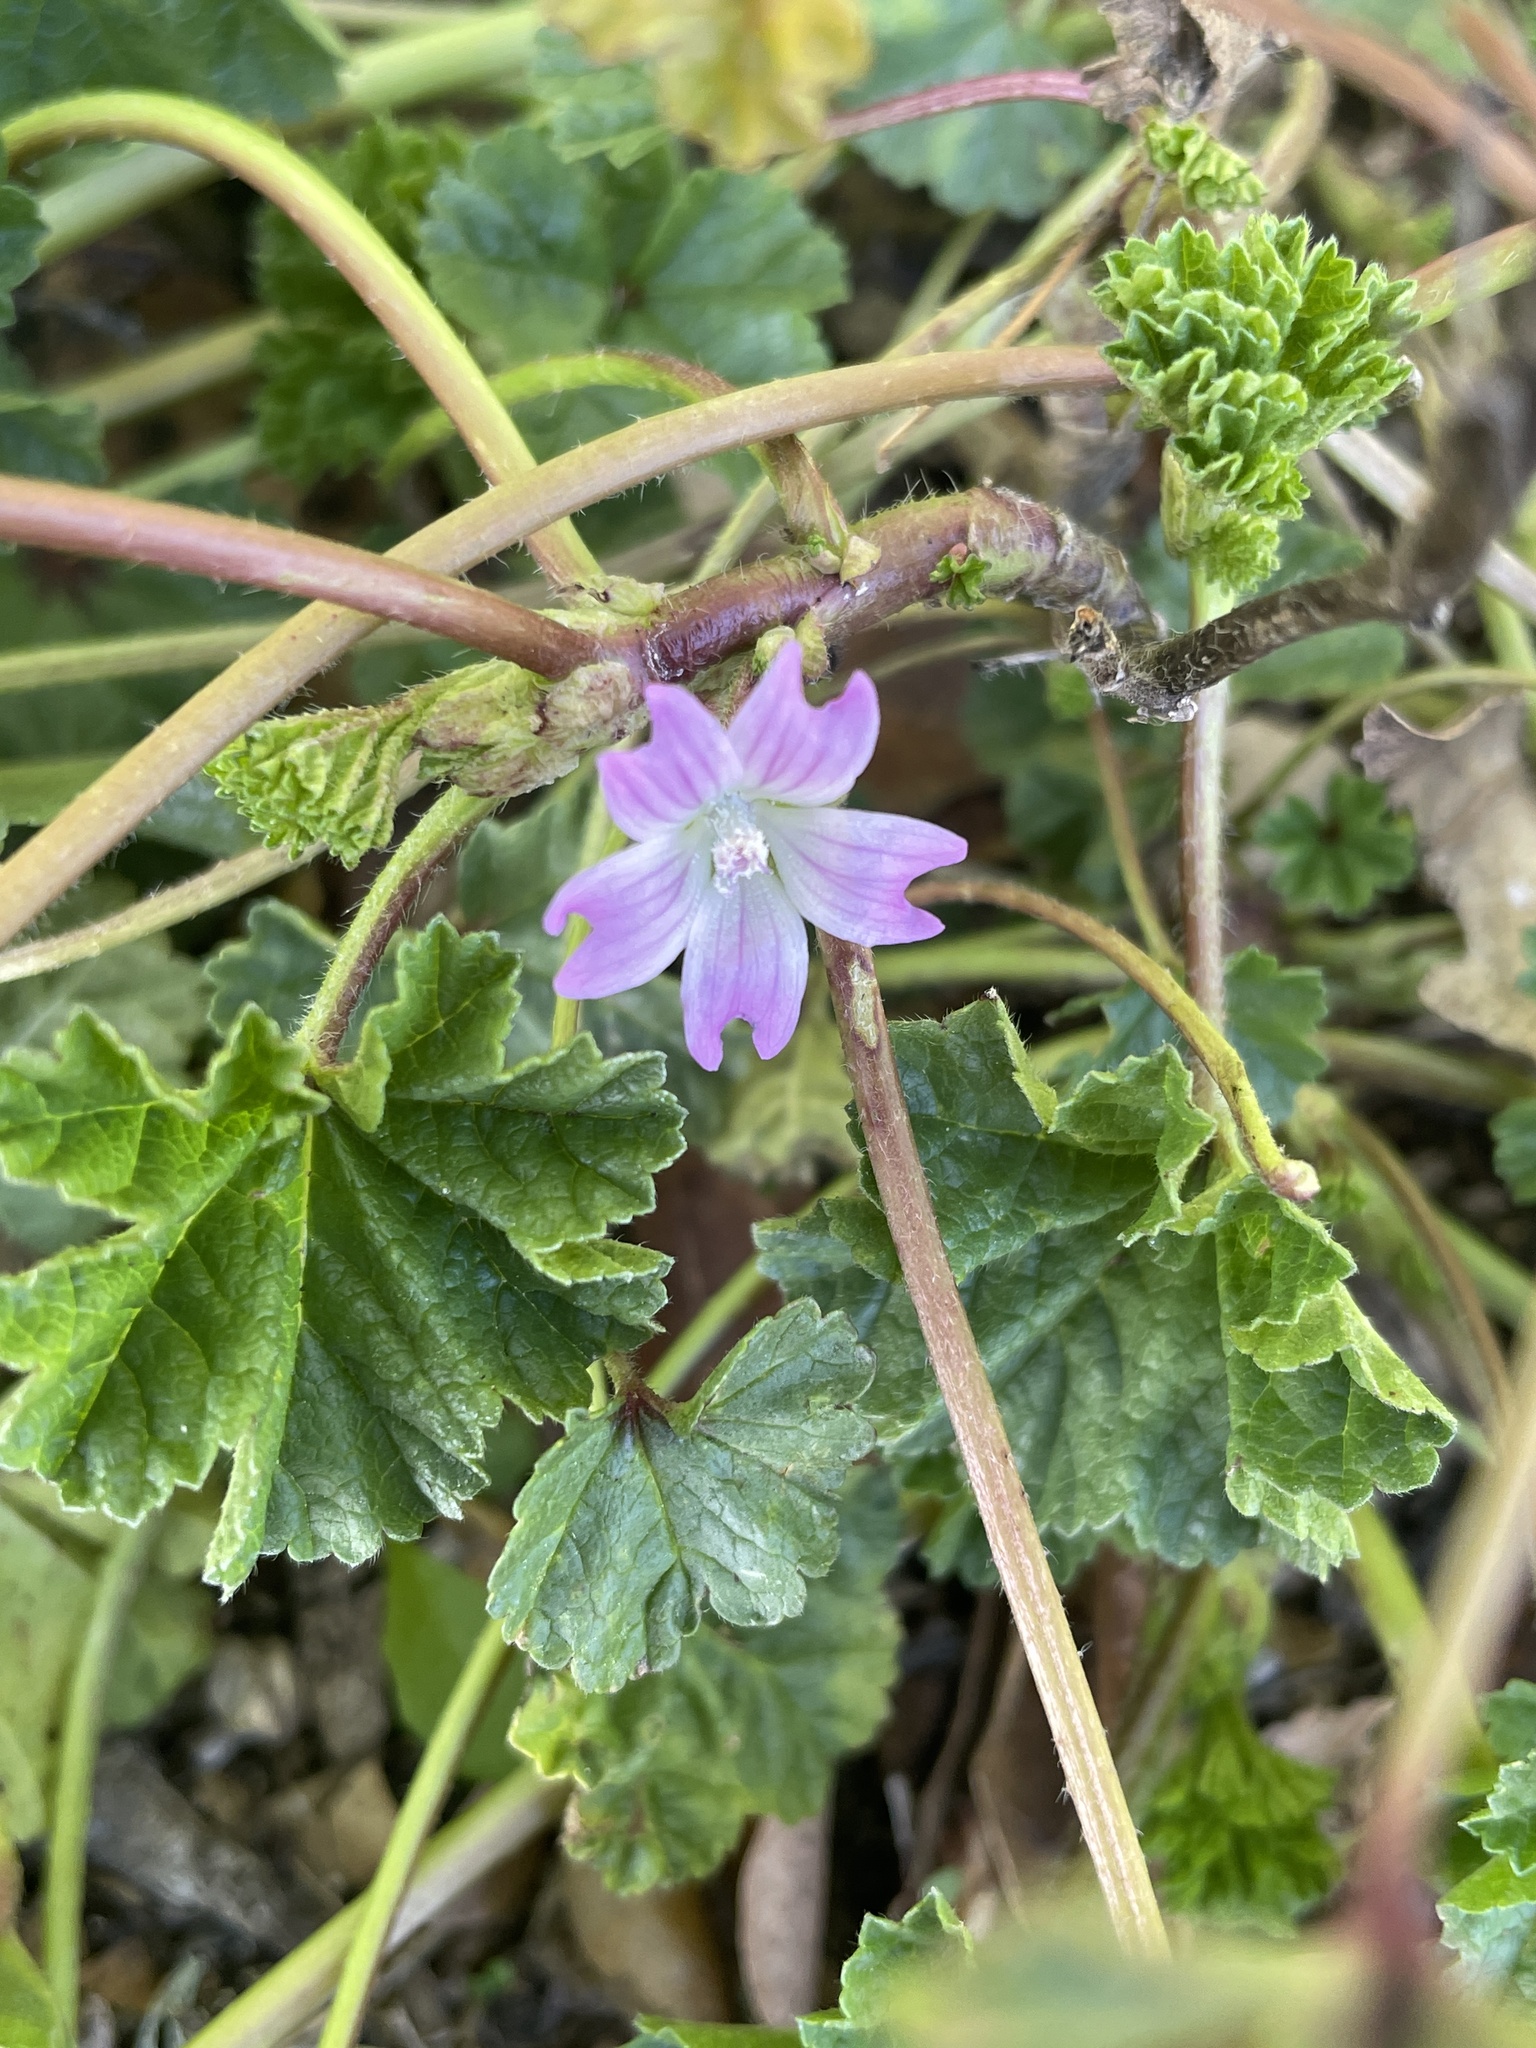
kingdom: Plantae
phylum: Tracheophyta
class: Magnoliopsida
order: Malvales
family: Malvaceae
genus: Malva
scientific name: Malva nicaeensis
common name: French mallow
